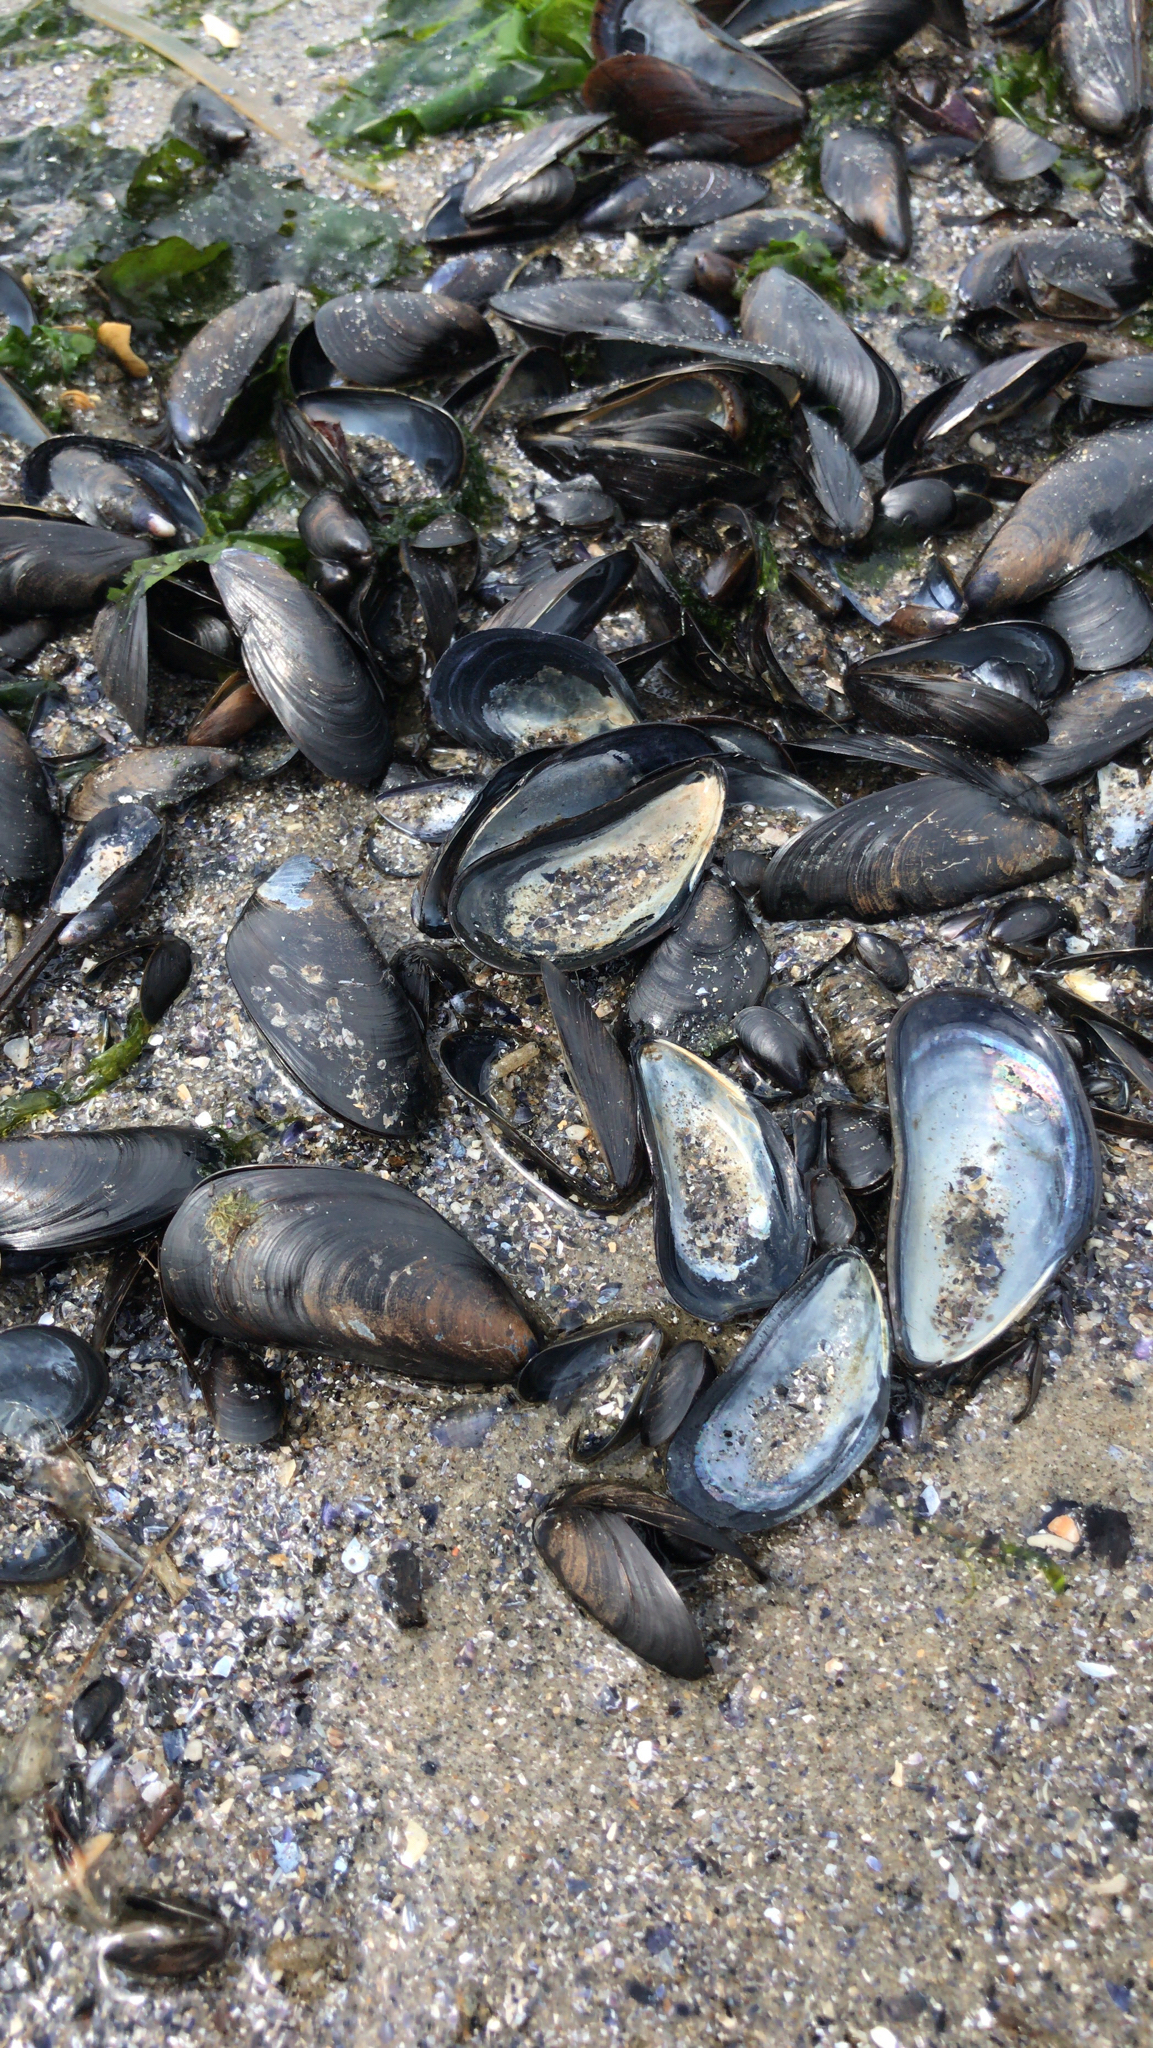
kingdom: Animalia
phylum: Mollusca
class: Bivalvia
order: Mytilida
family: Mytilidae
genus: Mytilus
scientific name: Mytilus edulis
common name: Blue mussel
